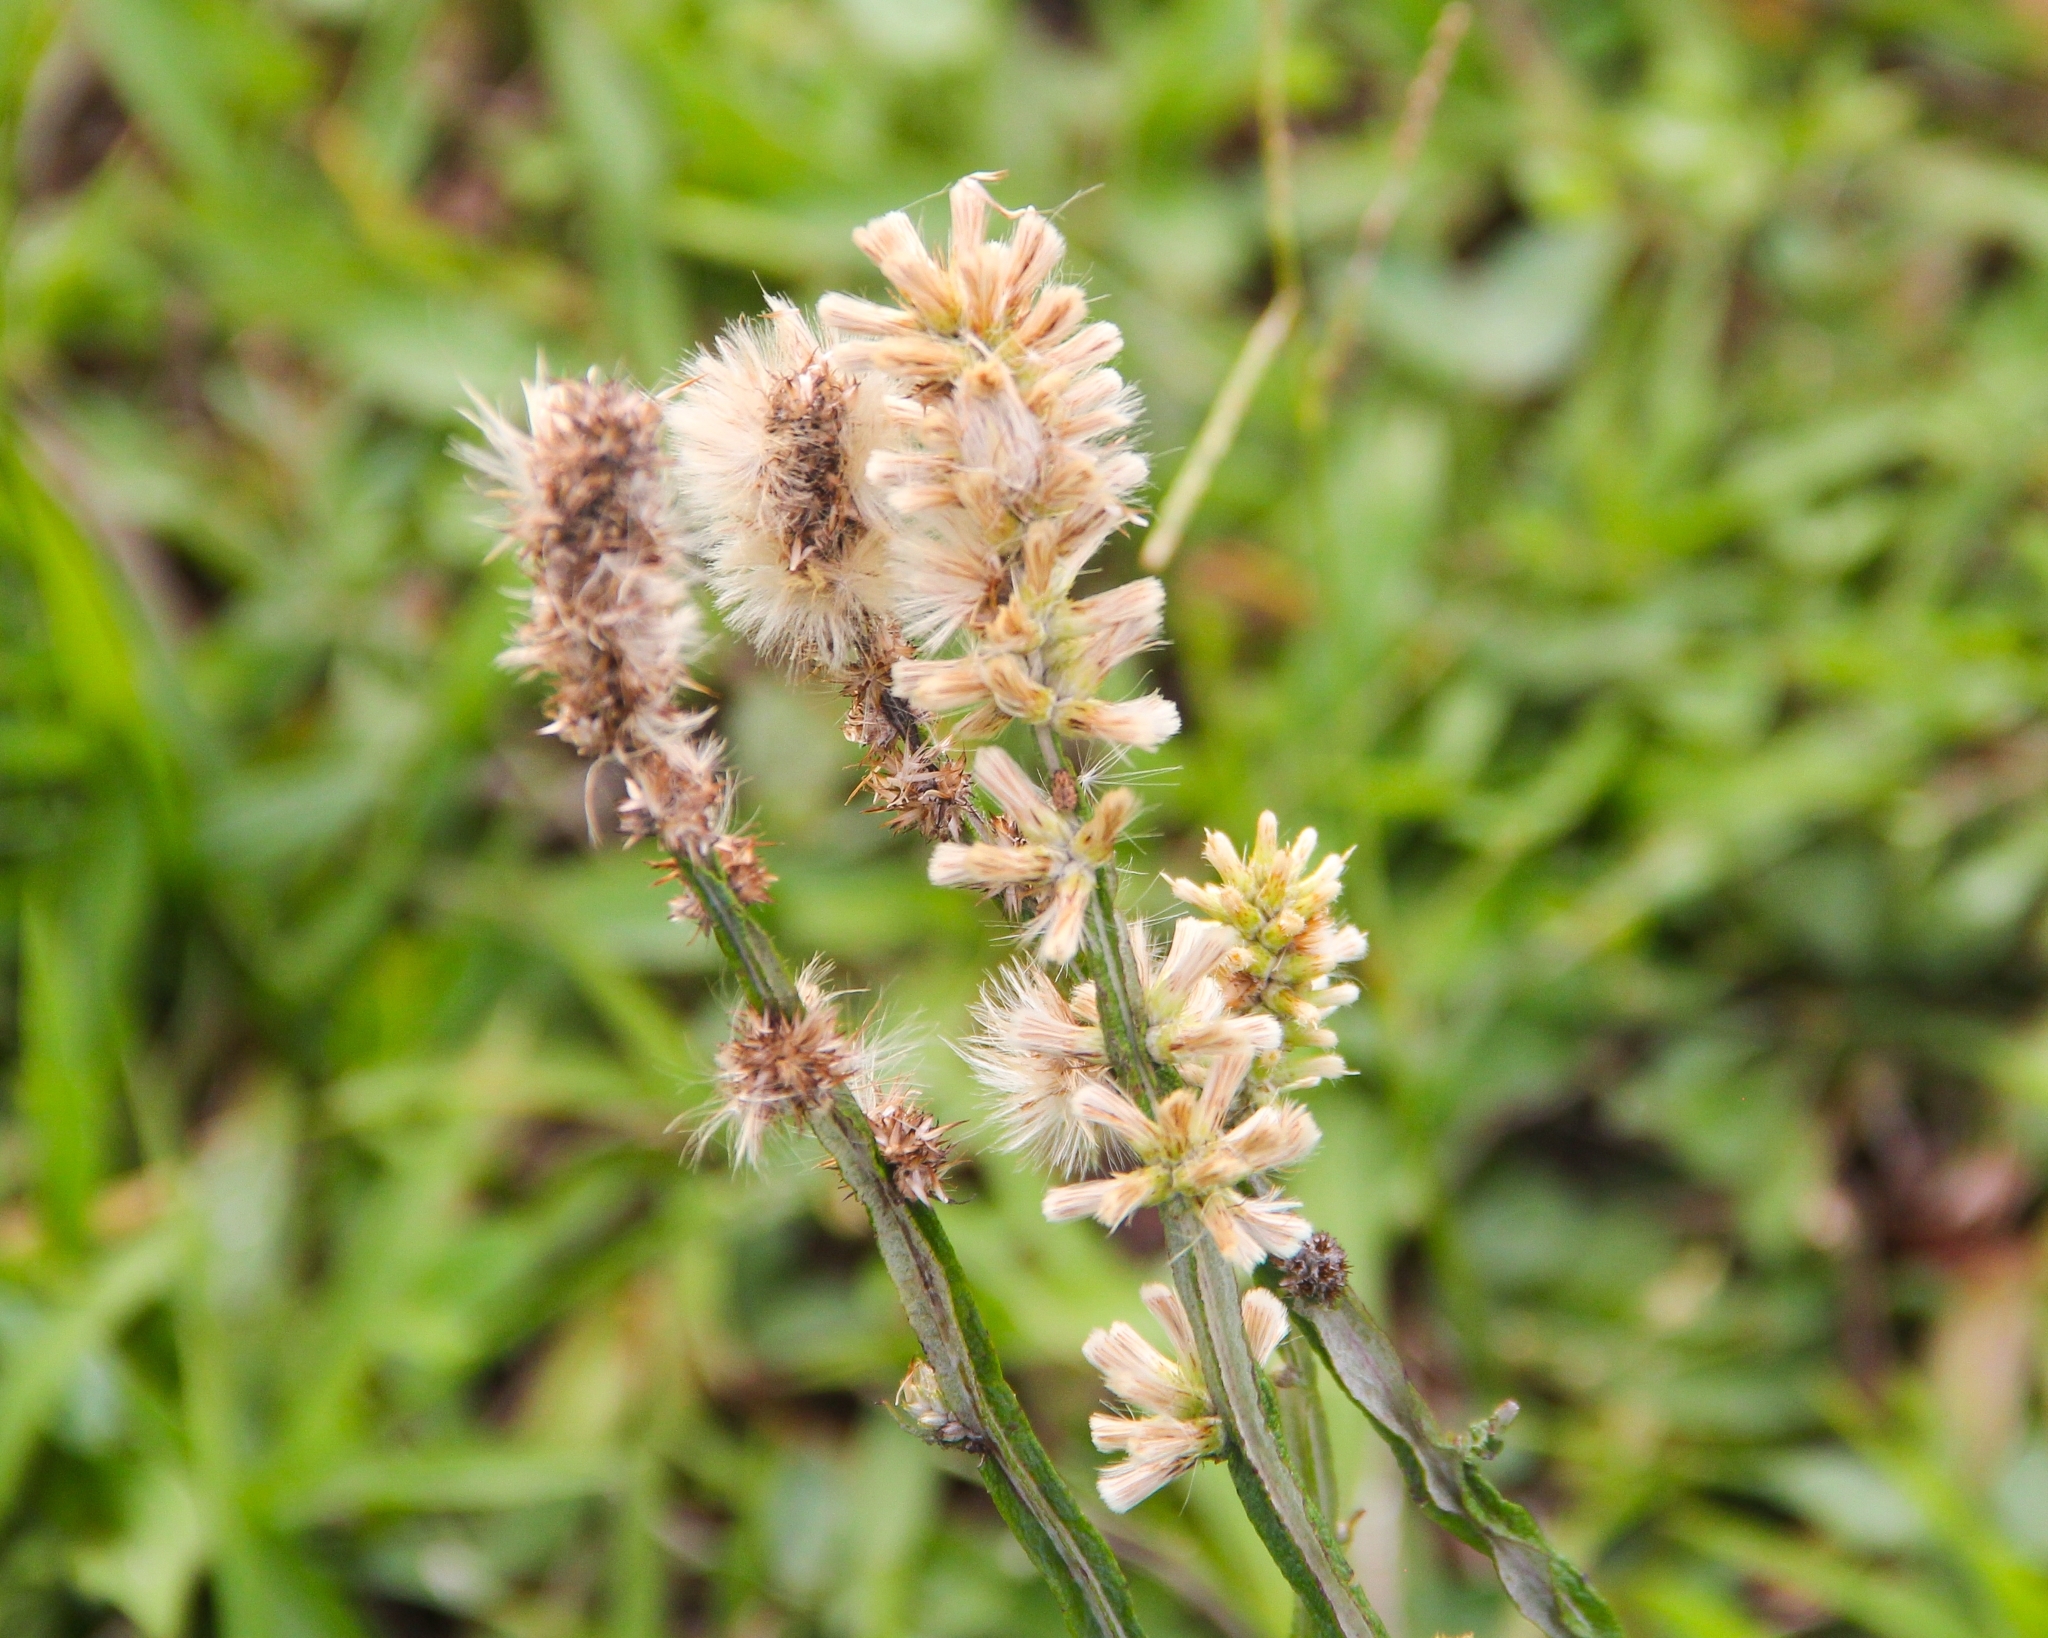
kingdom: Plantae
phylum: Tracheophyta
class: Magnoliopsida
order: Asterales
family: Asteraceae
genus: Pterocaulon
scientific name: Pterocaulon alopecuroides
